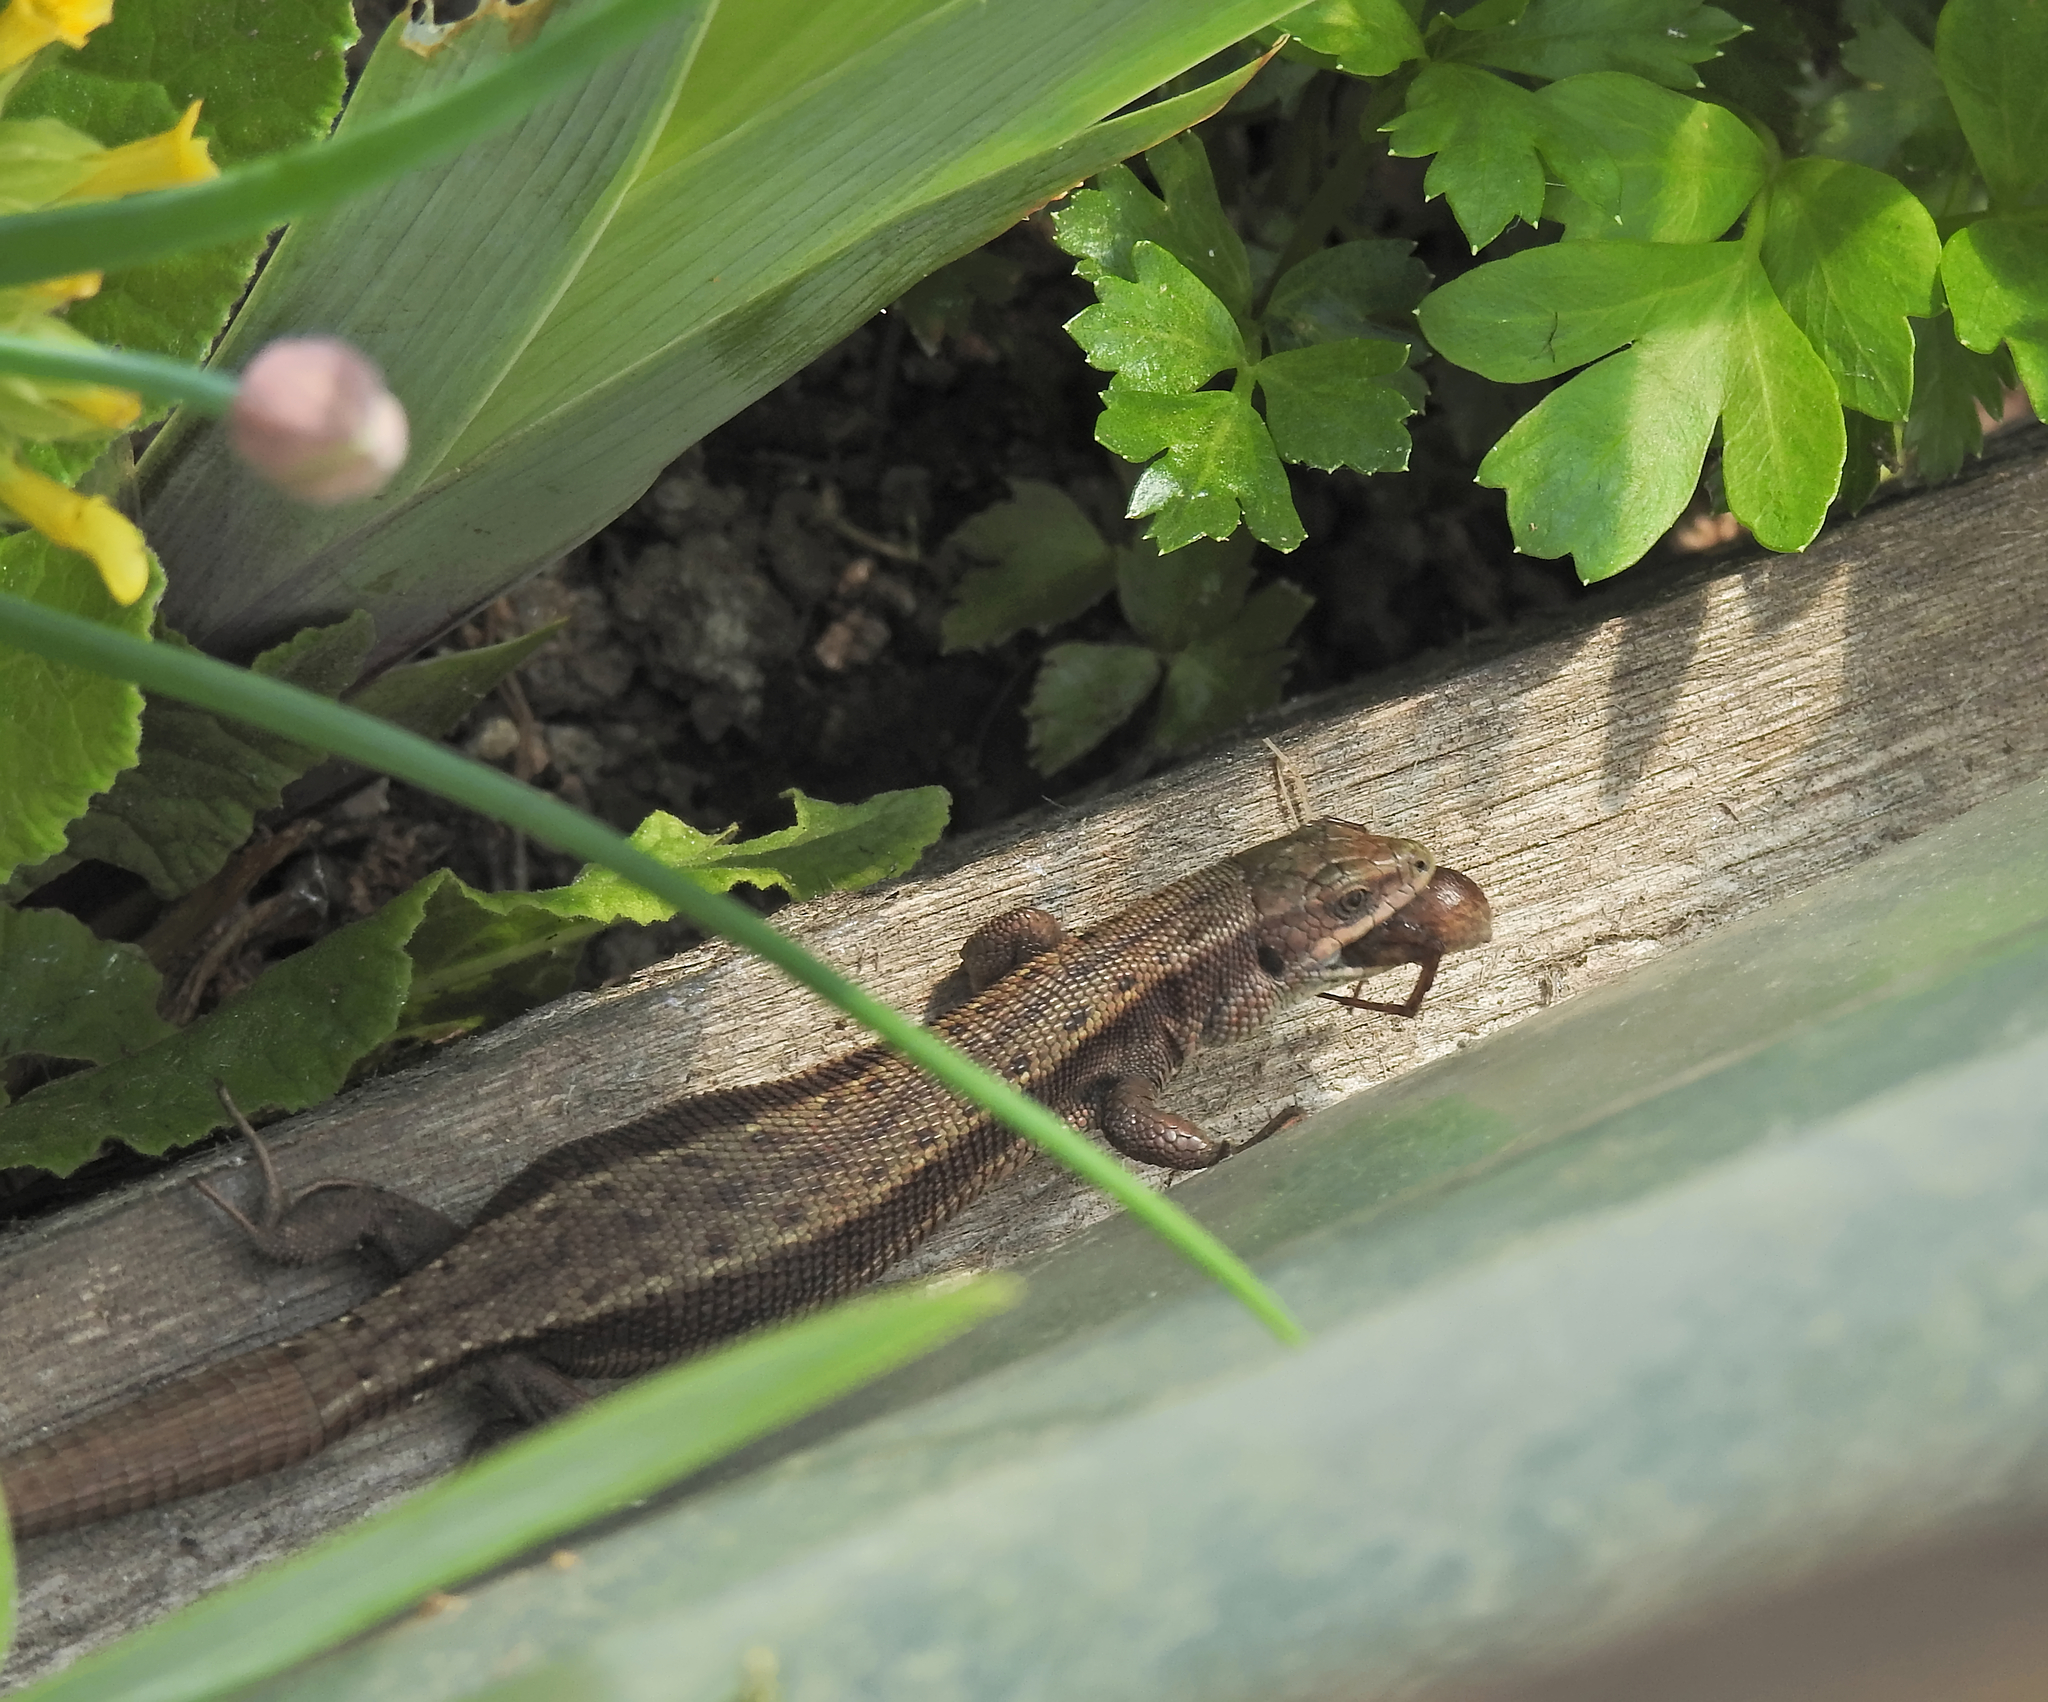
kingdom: Animalia
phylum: Chordata
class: Squamata
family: Lacertidae
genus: Zootoca
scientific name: Zootoca vivipara
